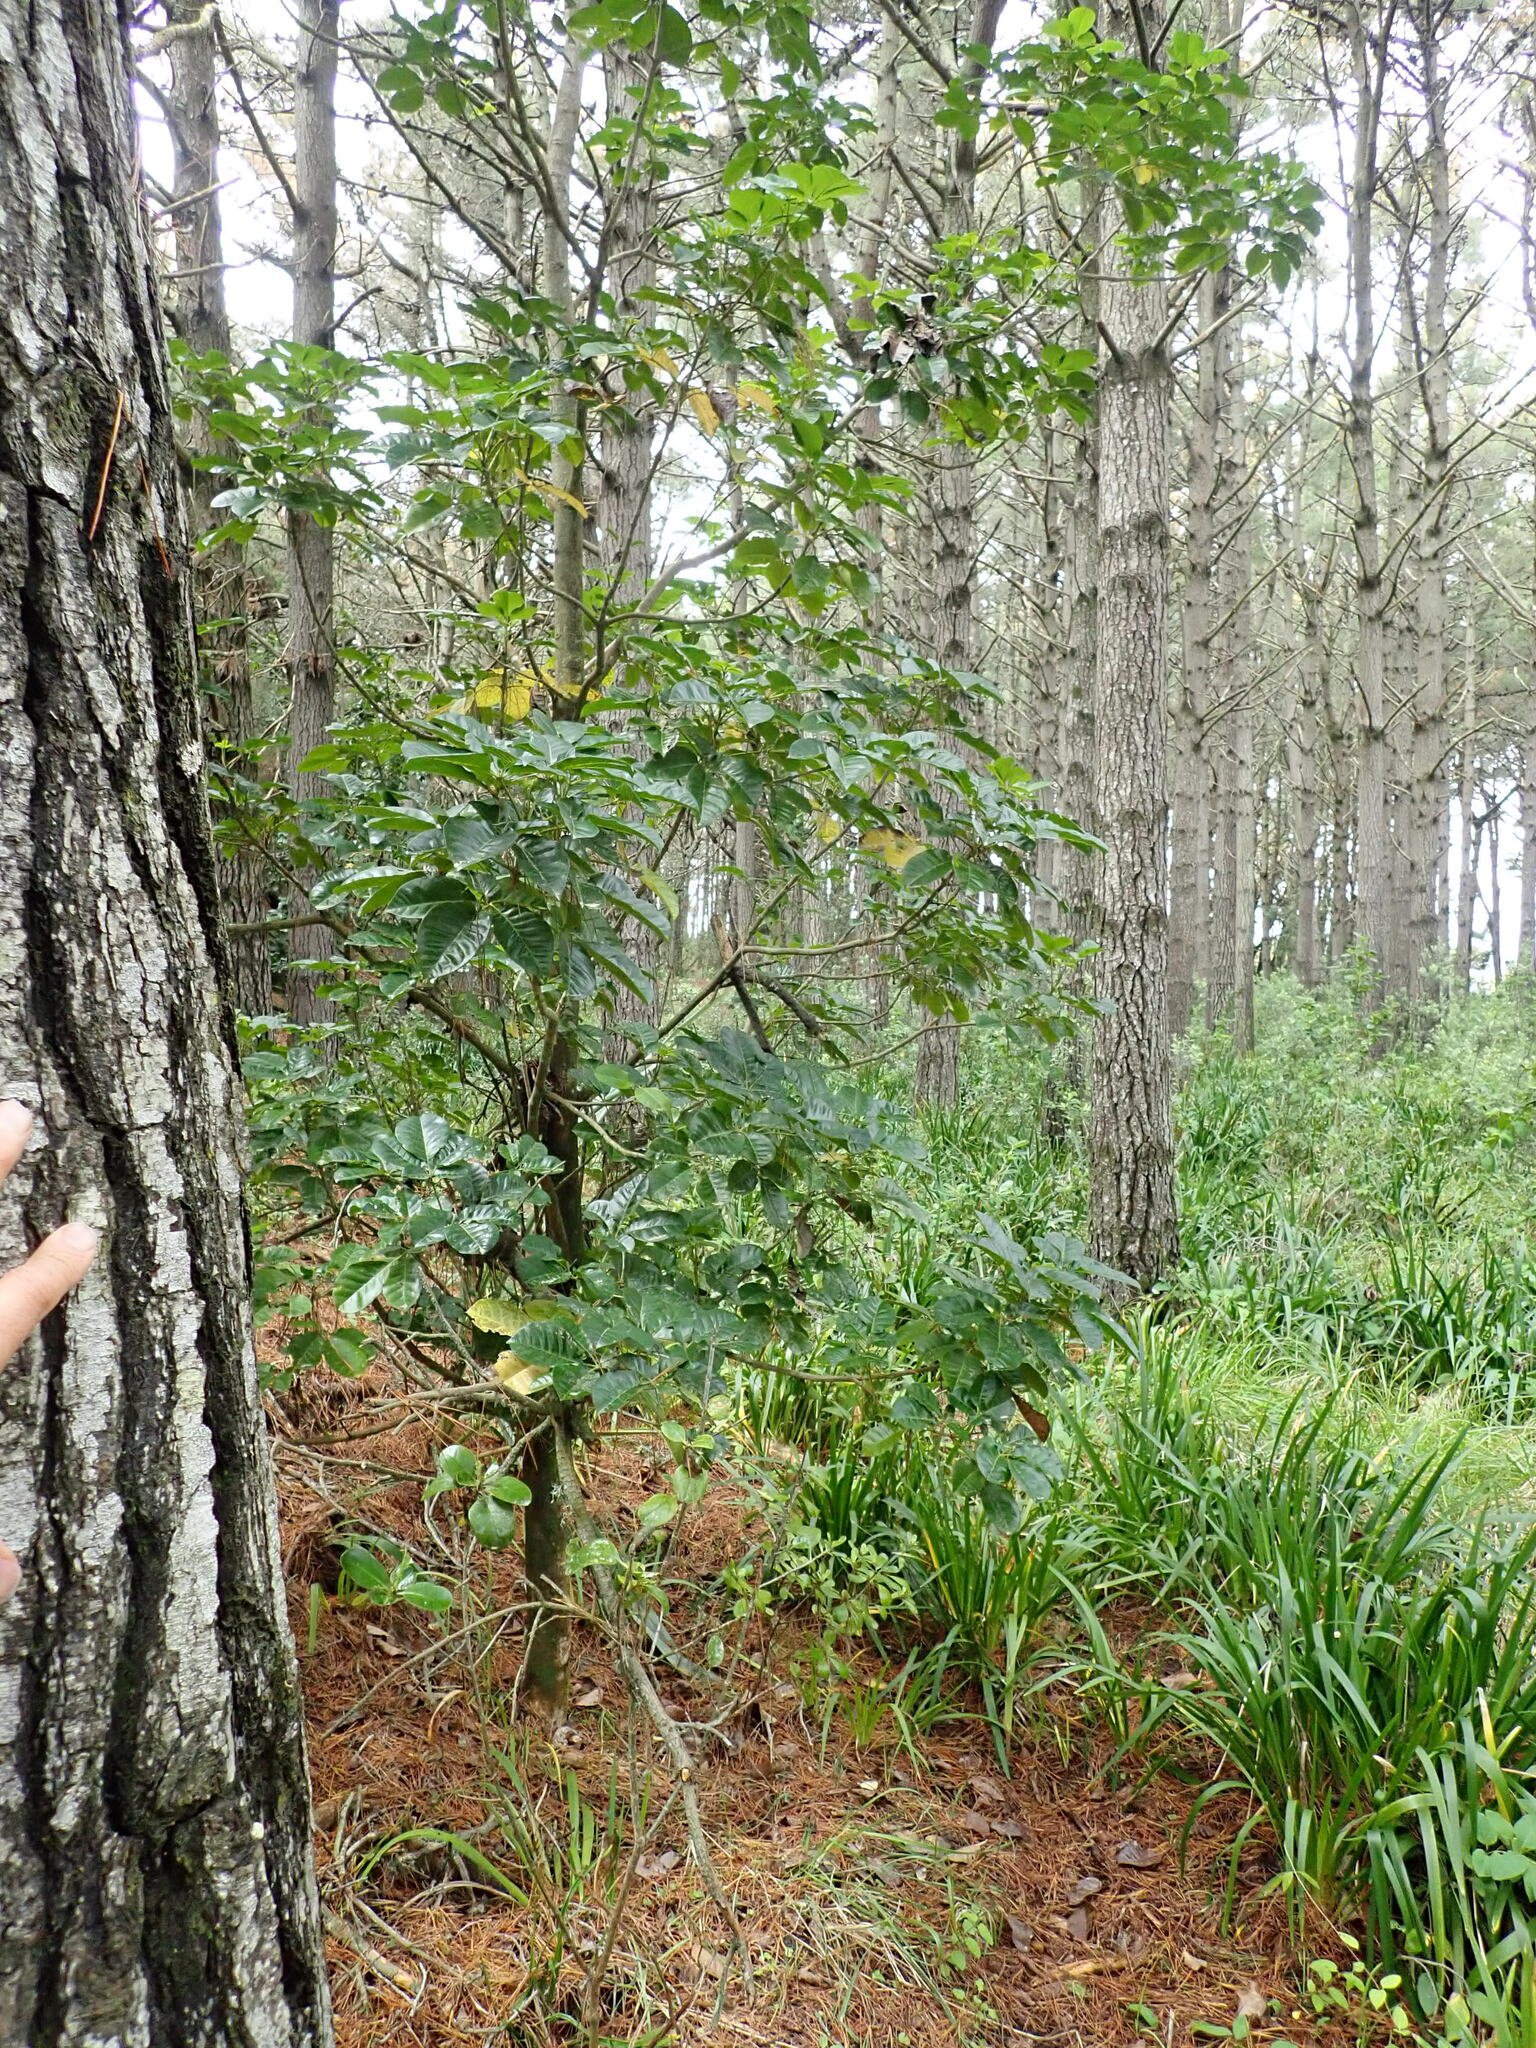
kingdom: Plantae
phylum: Tracheophyta
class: Magnoliopsida
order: Lamiales
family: Lamiaceae
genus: Vitex
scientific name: Vitex lucens
